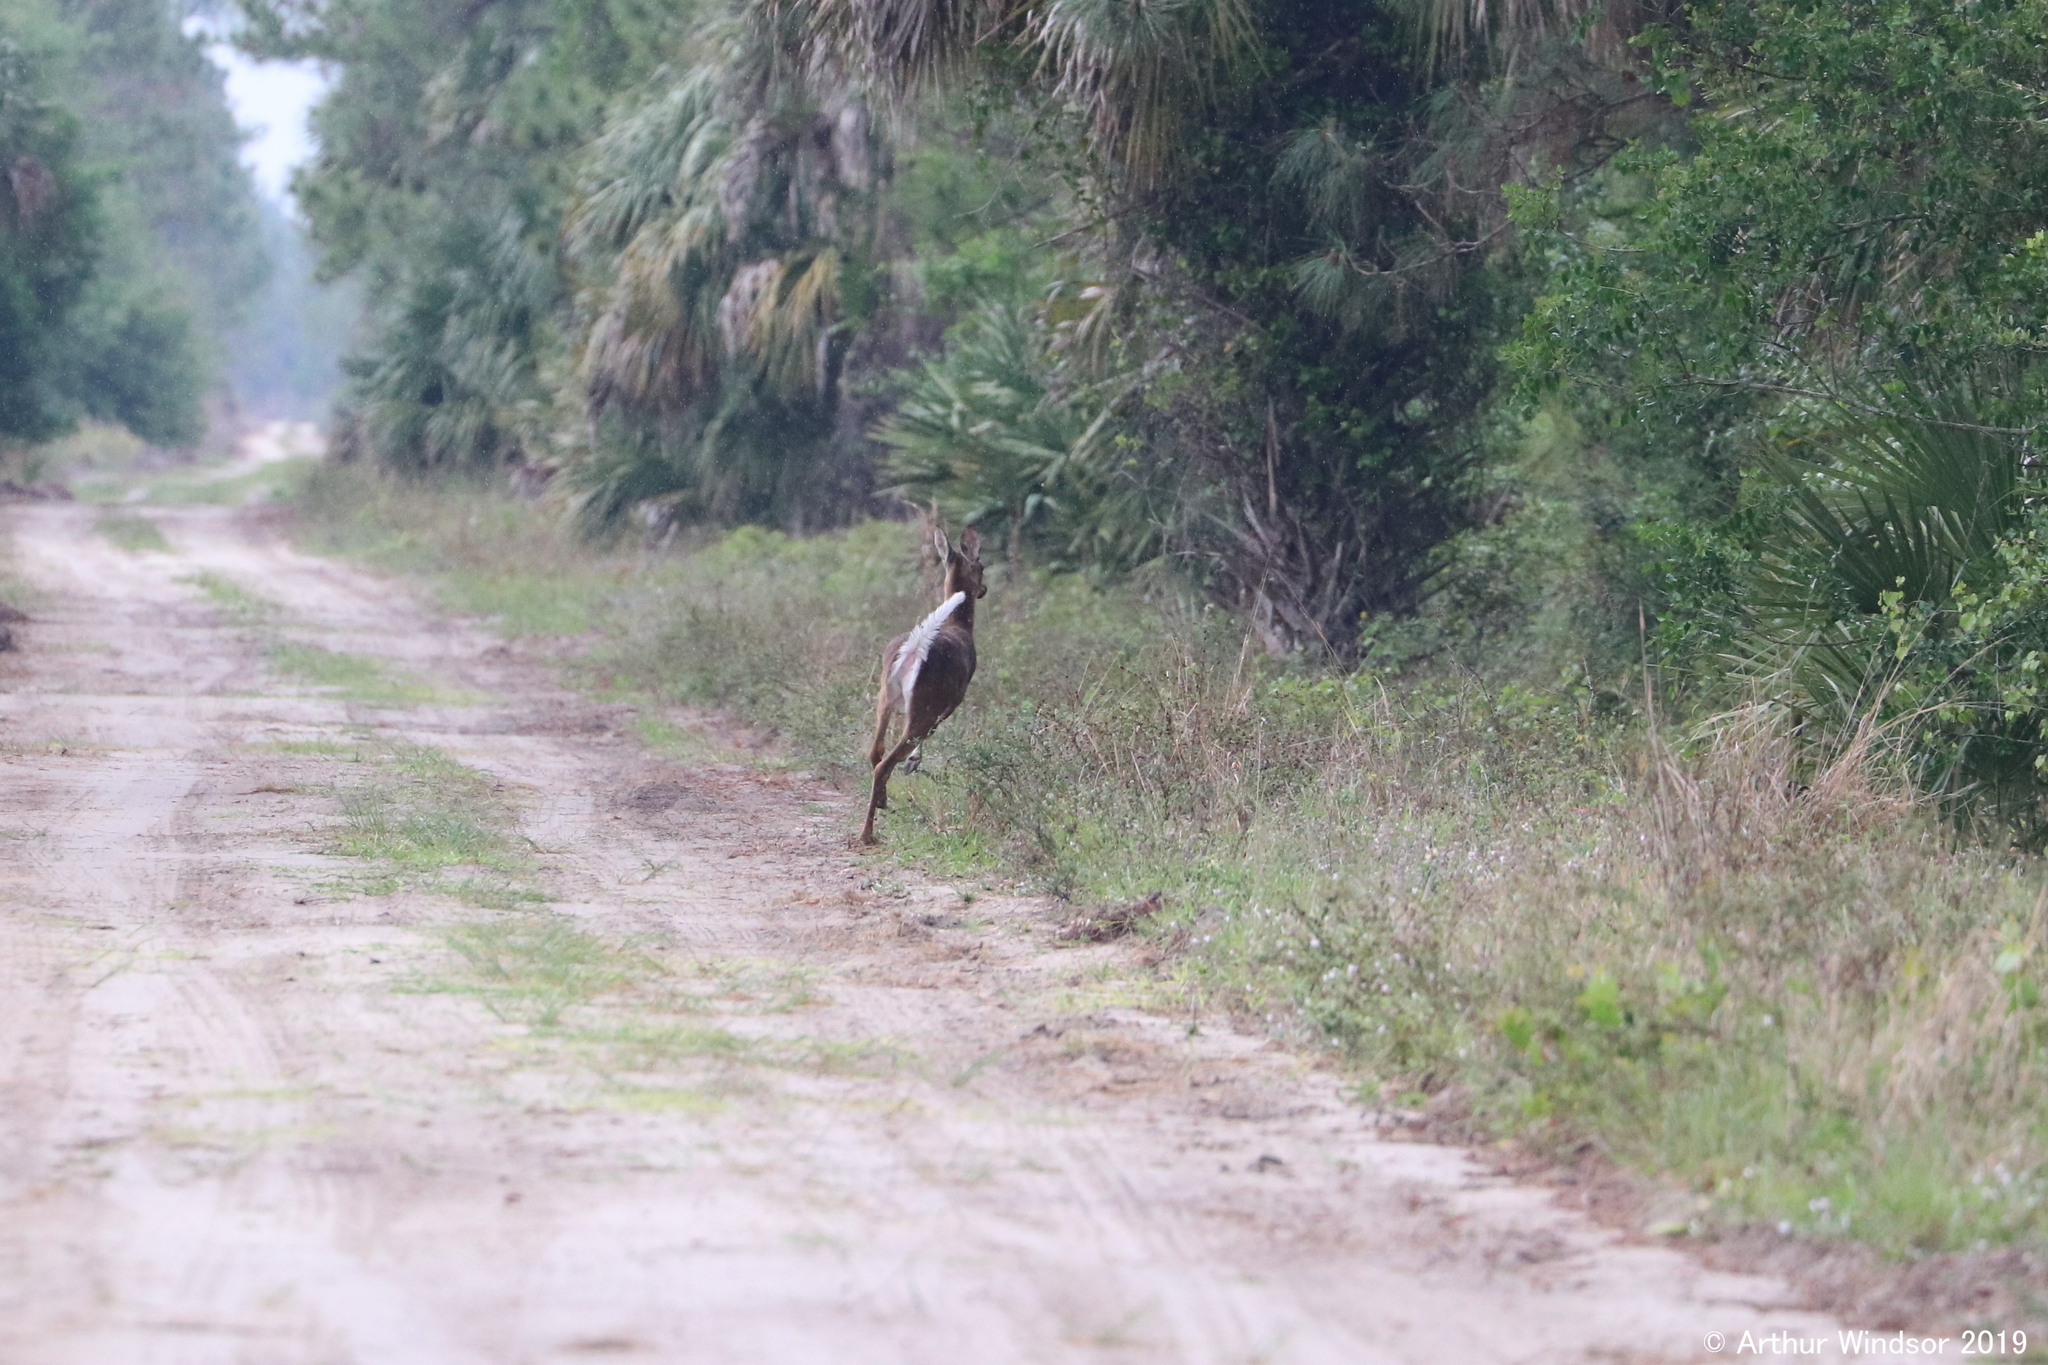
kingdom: Animalia
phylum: Chordata
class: Mammalia
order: Artiodactyla
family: Cervidae
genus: Odocoileus
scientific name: Odocoileus virginianus
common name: White-tailed deer
